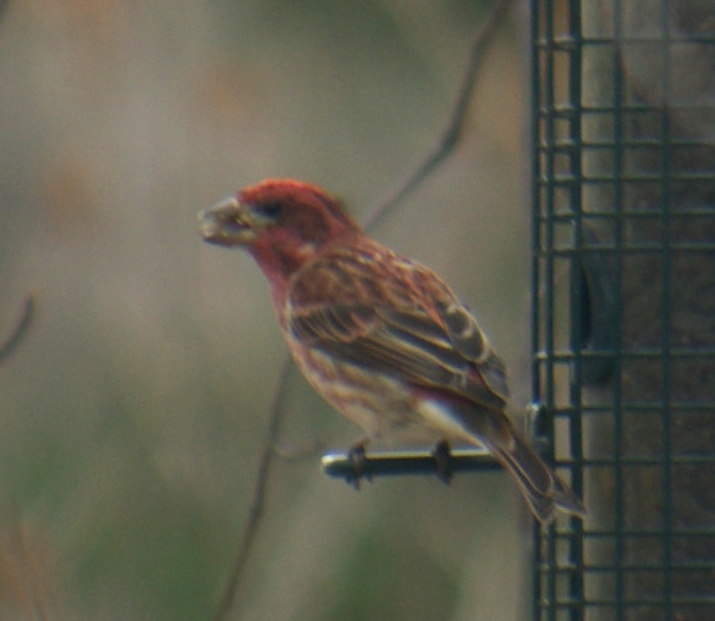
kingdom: Animalia
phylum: Chordata
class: Aves
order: Passeriformes
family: Fringillidae
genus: Haemorhous
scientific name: Haemorhous purpureus
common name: Purple finch
